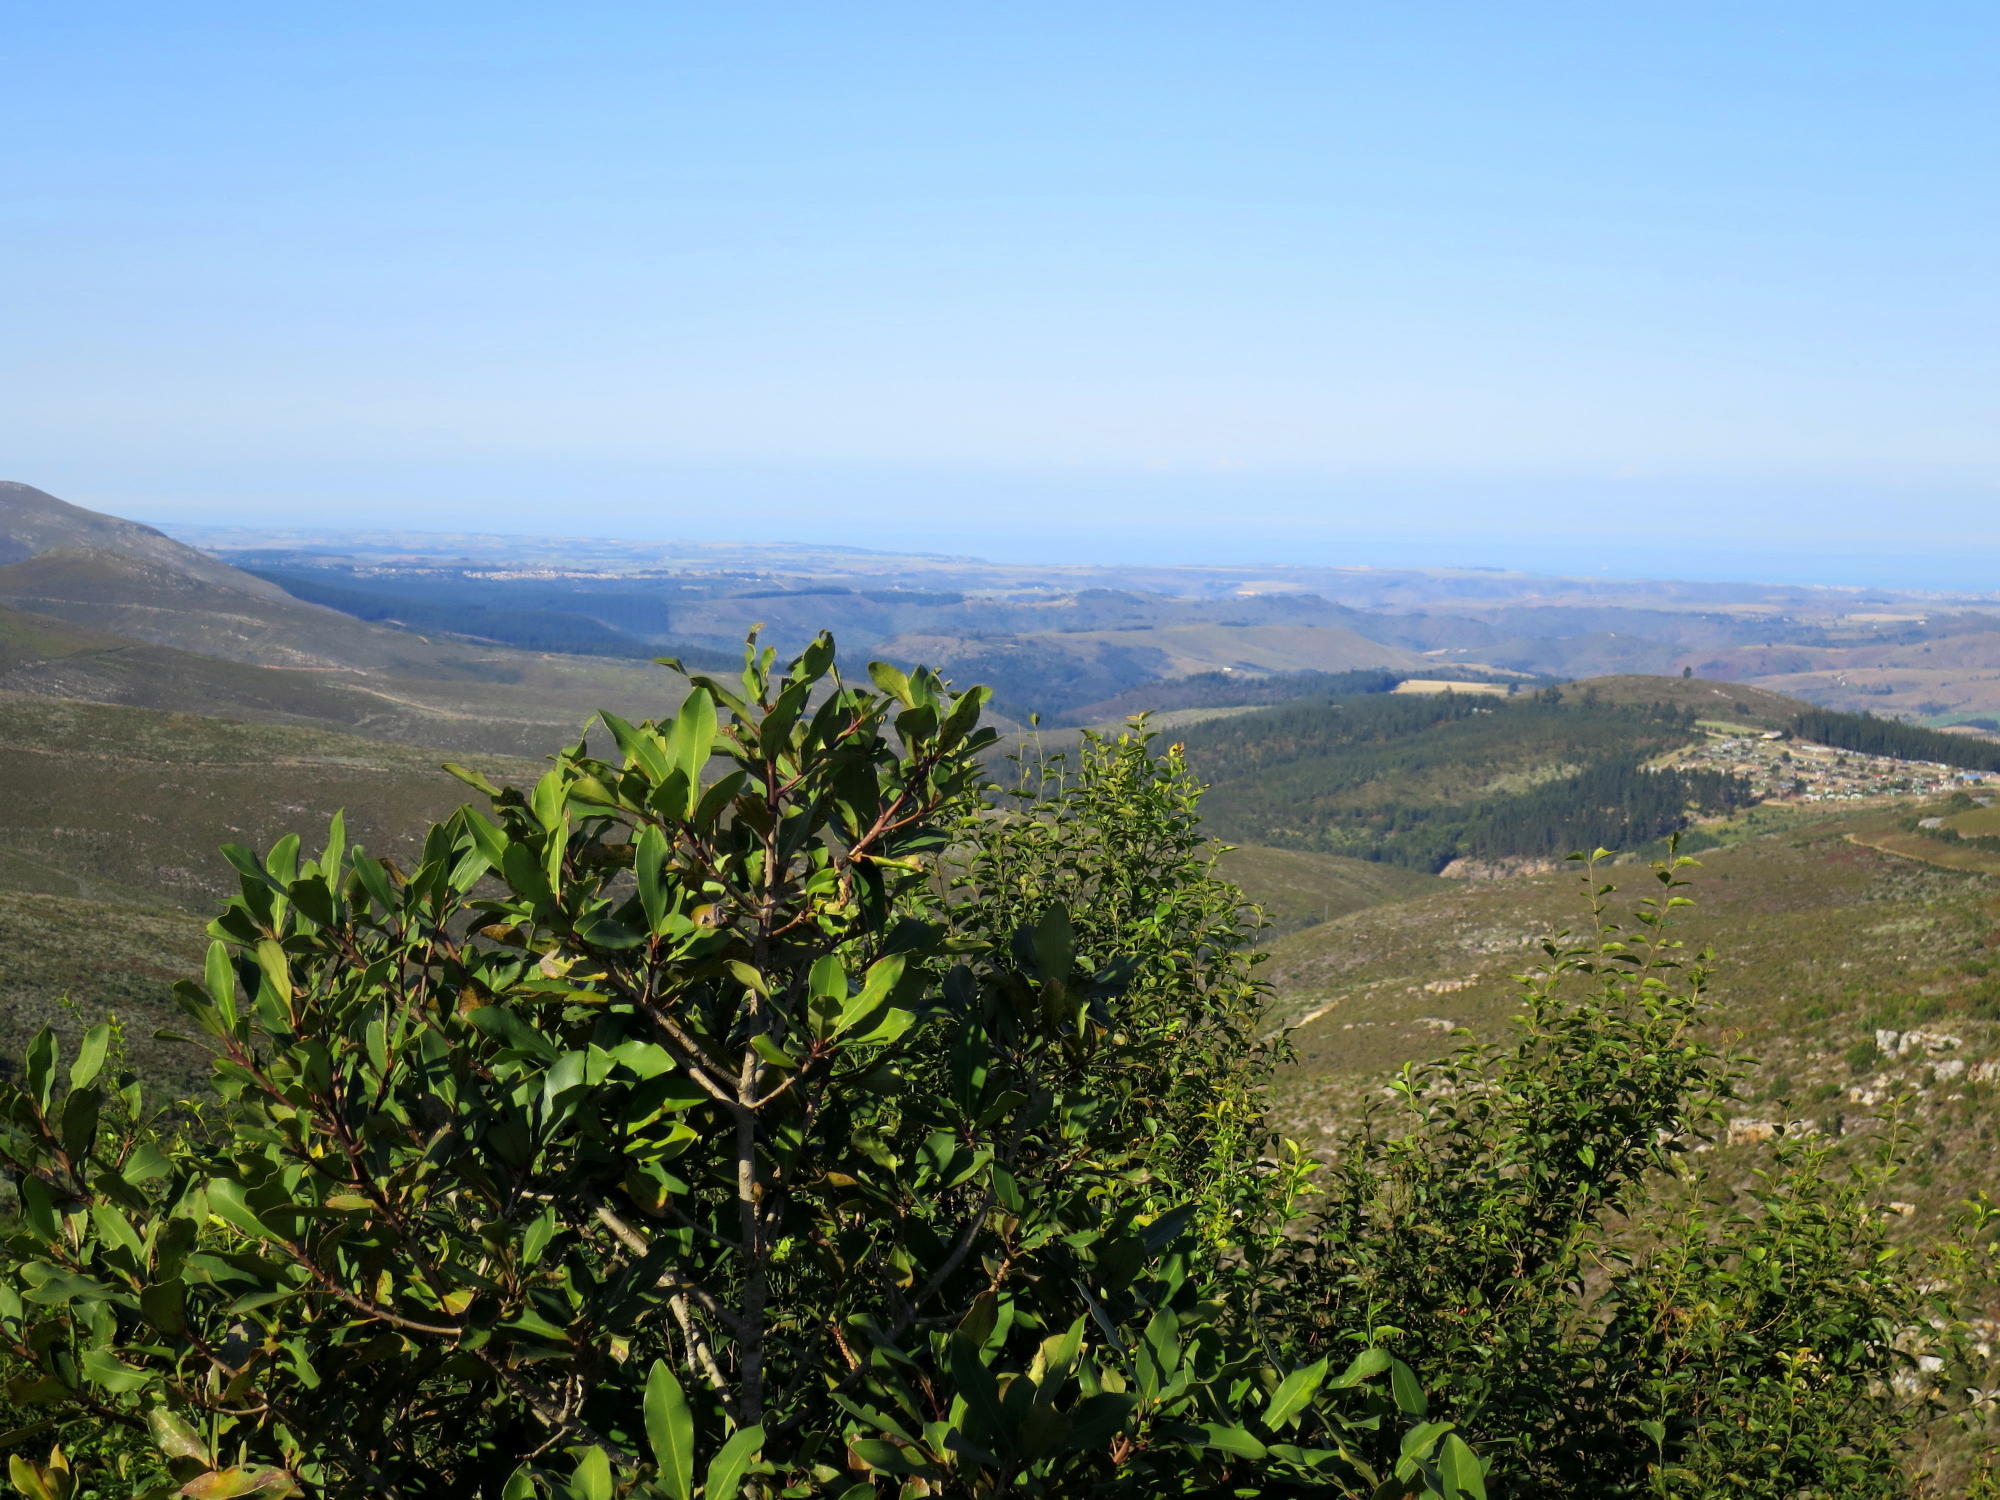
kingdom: Plantae
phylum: Tracheophyta
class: Magnoliopsida
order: Ericales
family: Primulaceae
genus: Myrsine
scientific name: Myrsine melanophloeos
